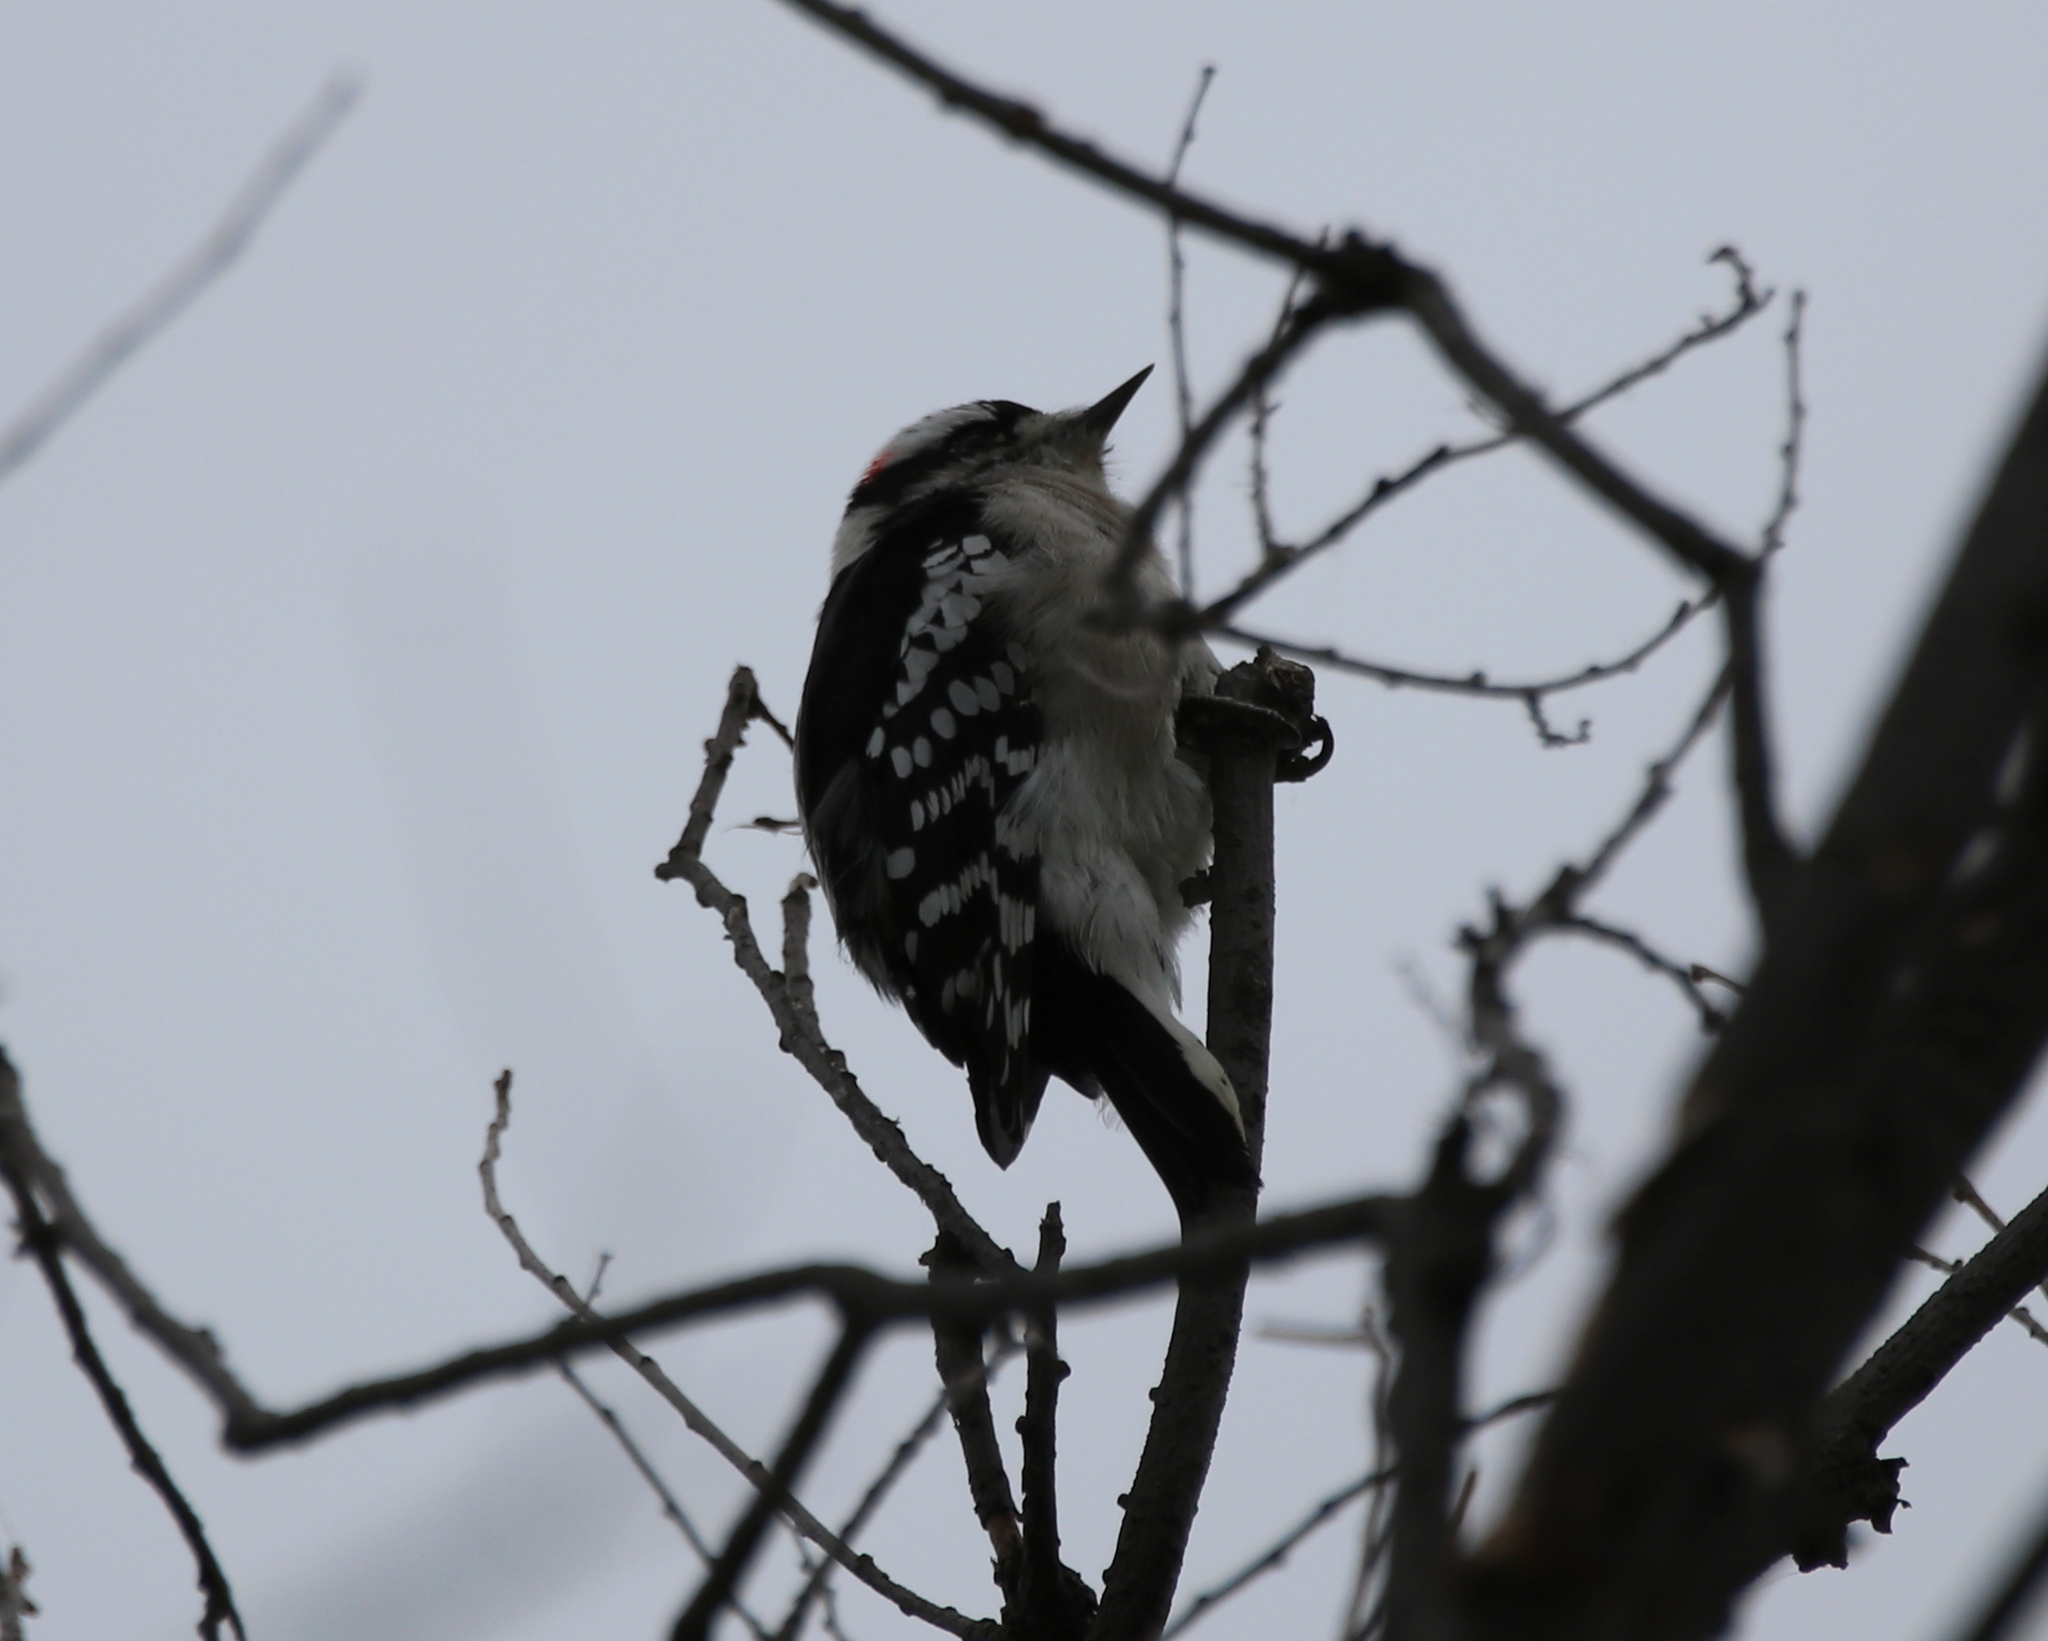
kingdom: Animalia
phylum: Chordata
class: Aves
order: Piciformes
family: Picidae
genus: Dryobates
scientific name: Dryobates pubescens
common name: Downy woodpecker
